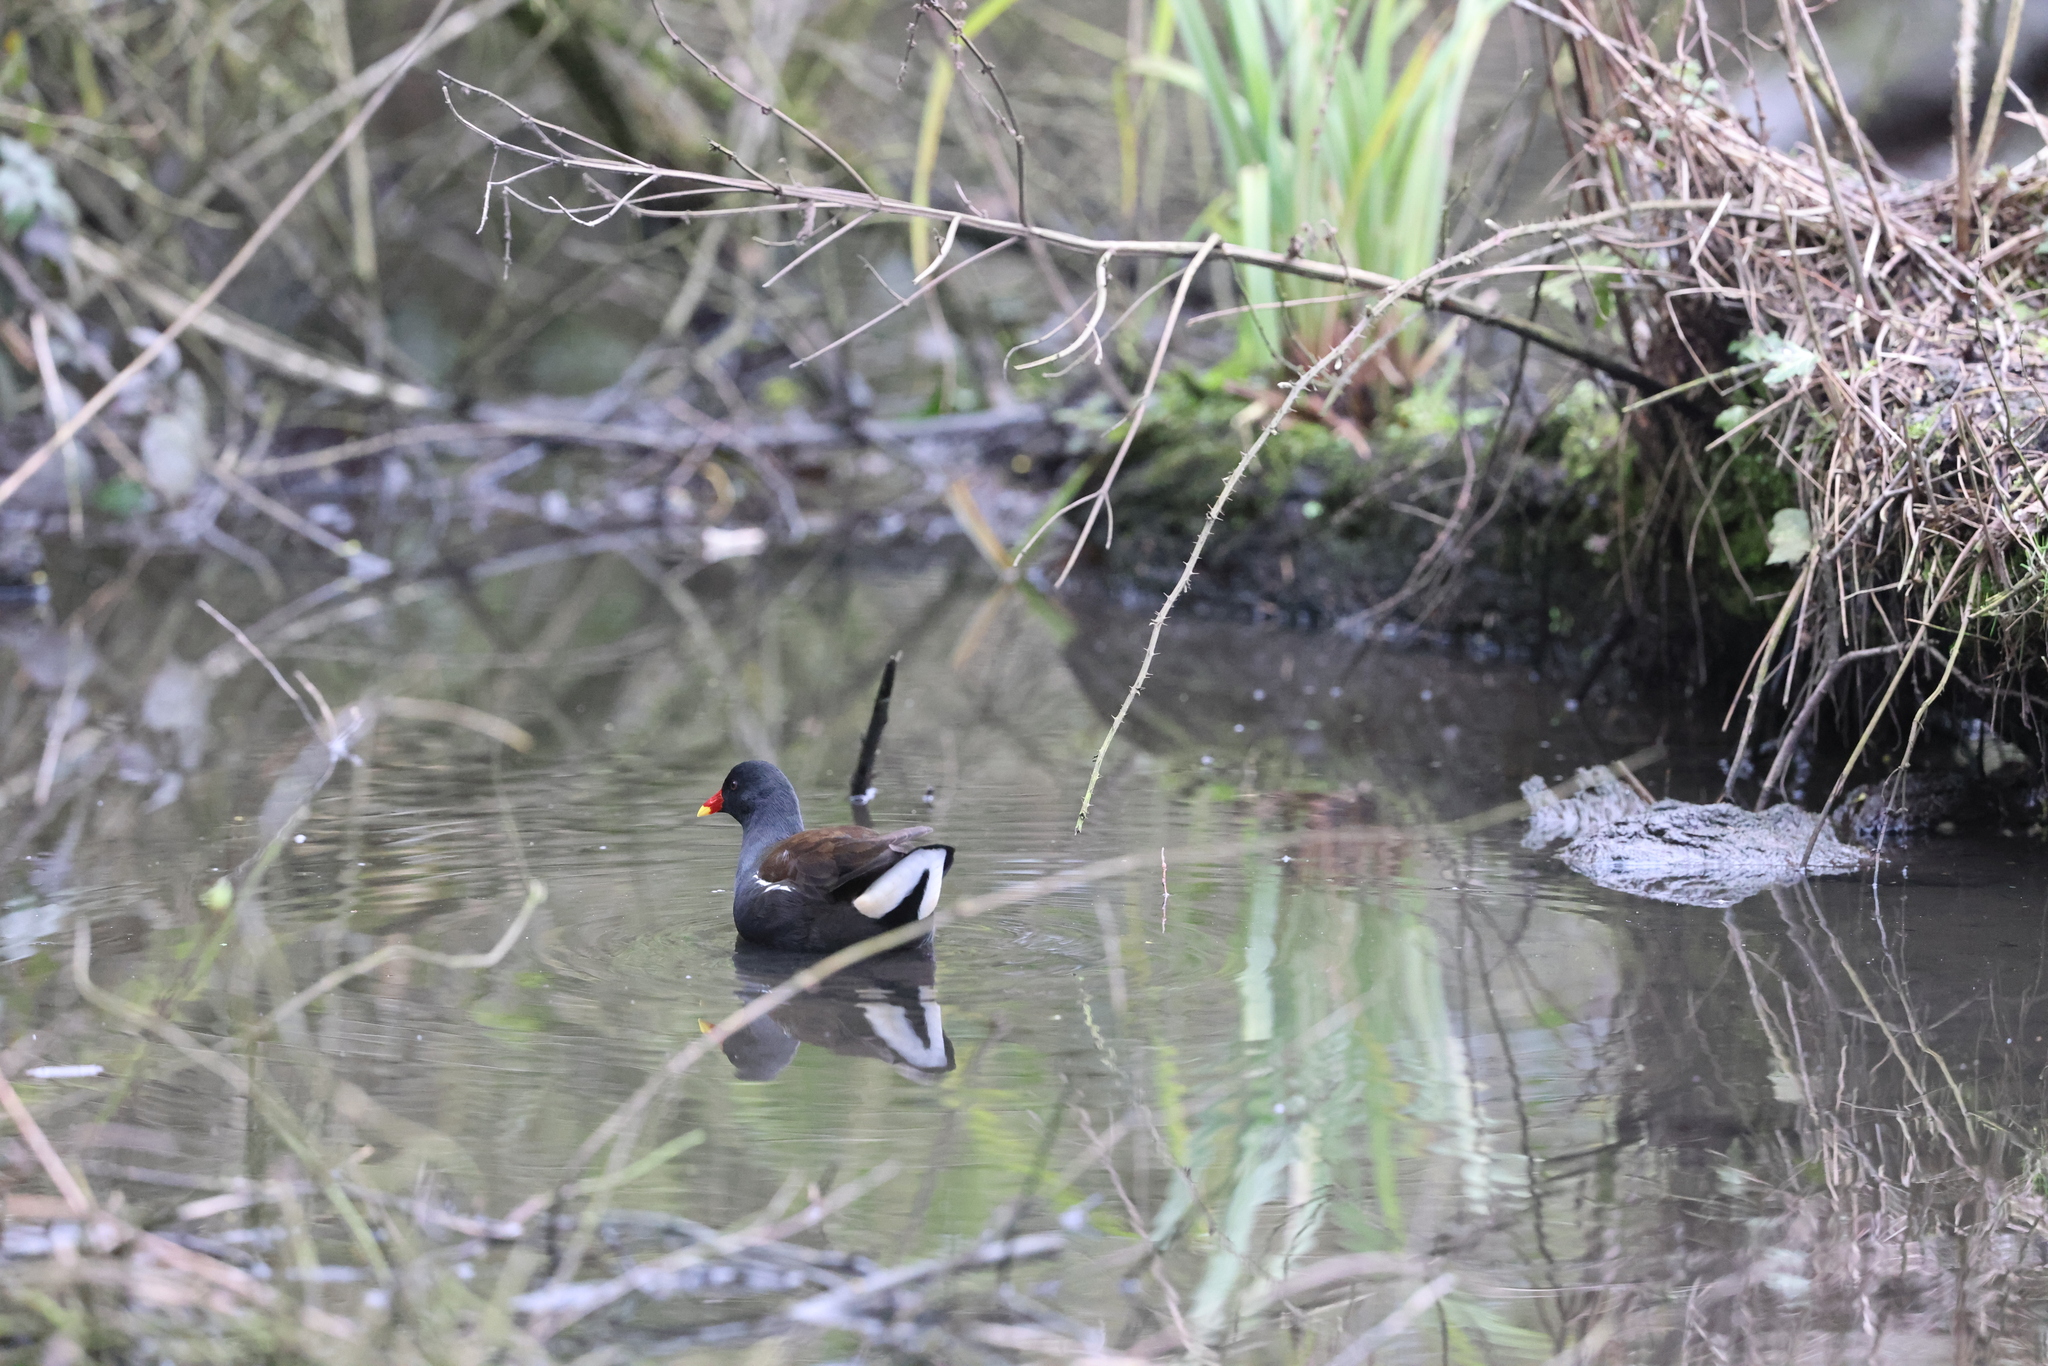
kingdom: Animalia
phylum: Chordata
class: Aves
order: Gruiformes
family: Rallidae
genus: Gallinula
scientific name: Gallinula chloropus
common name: Common moorhen
